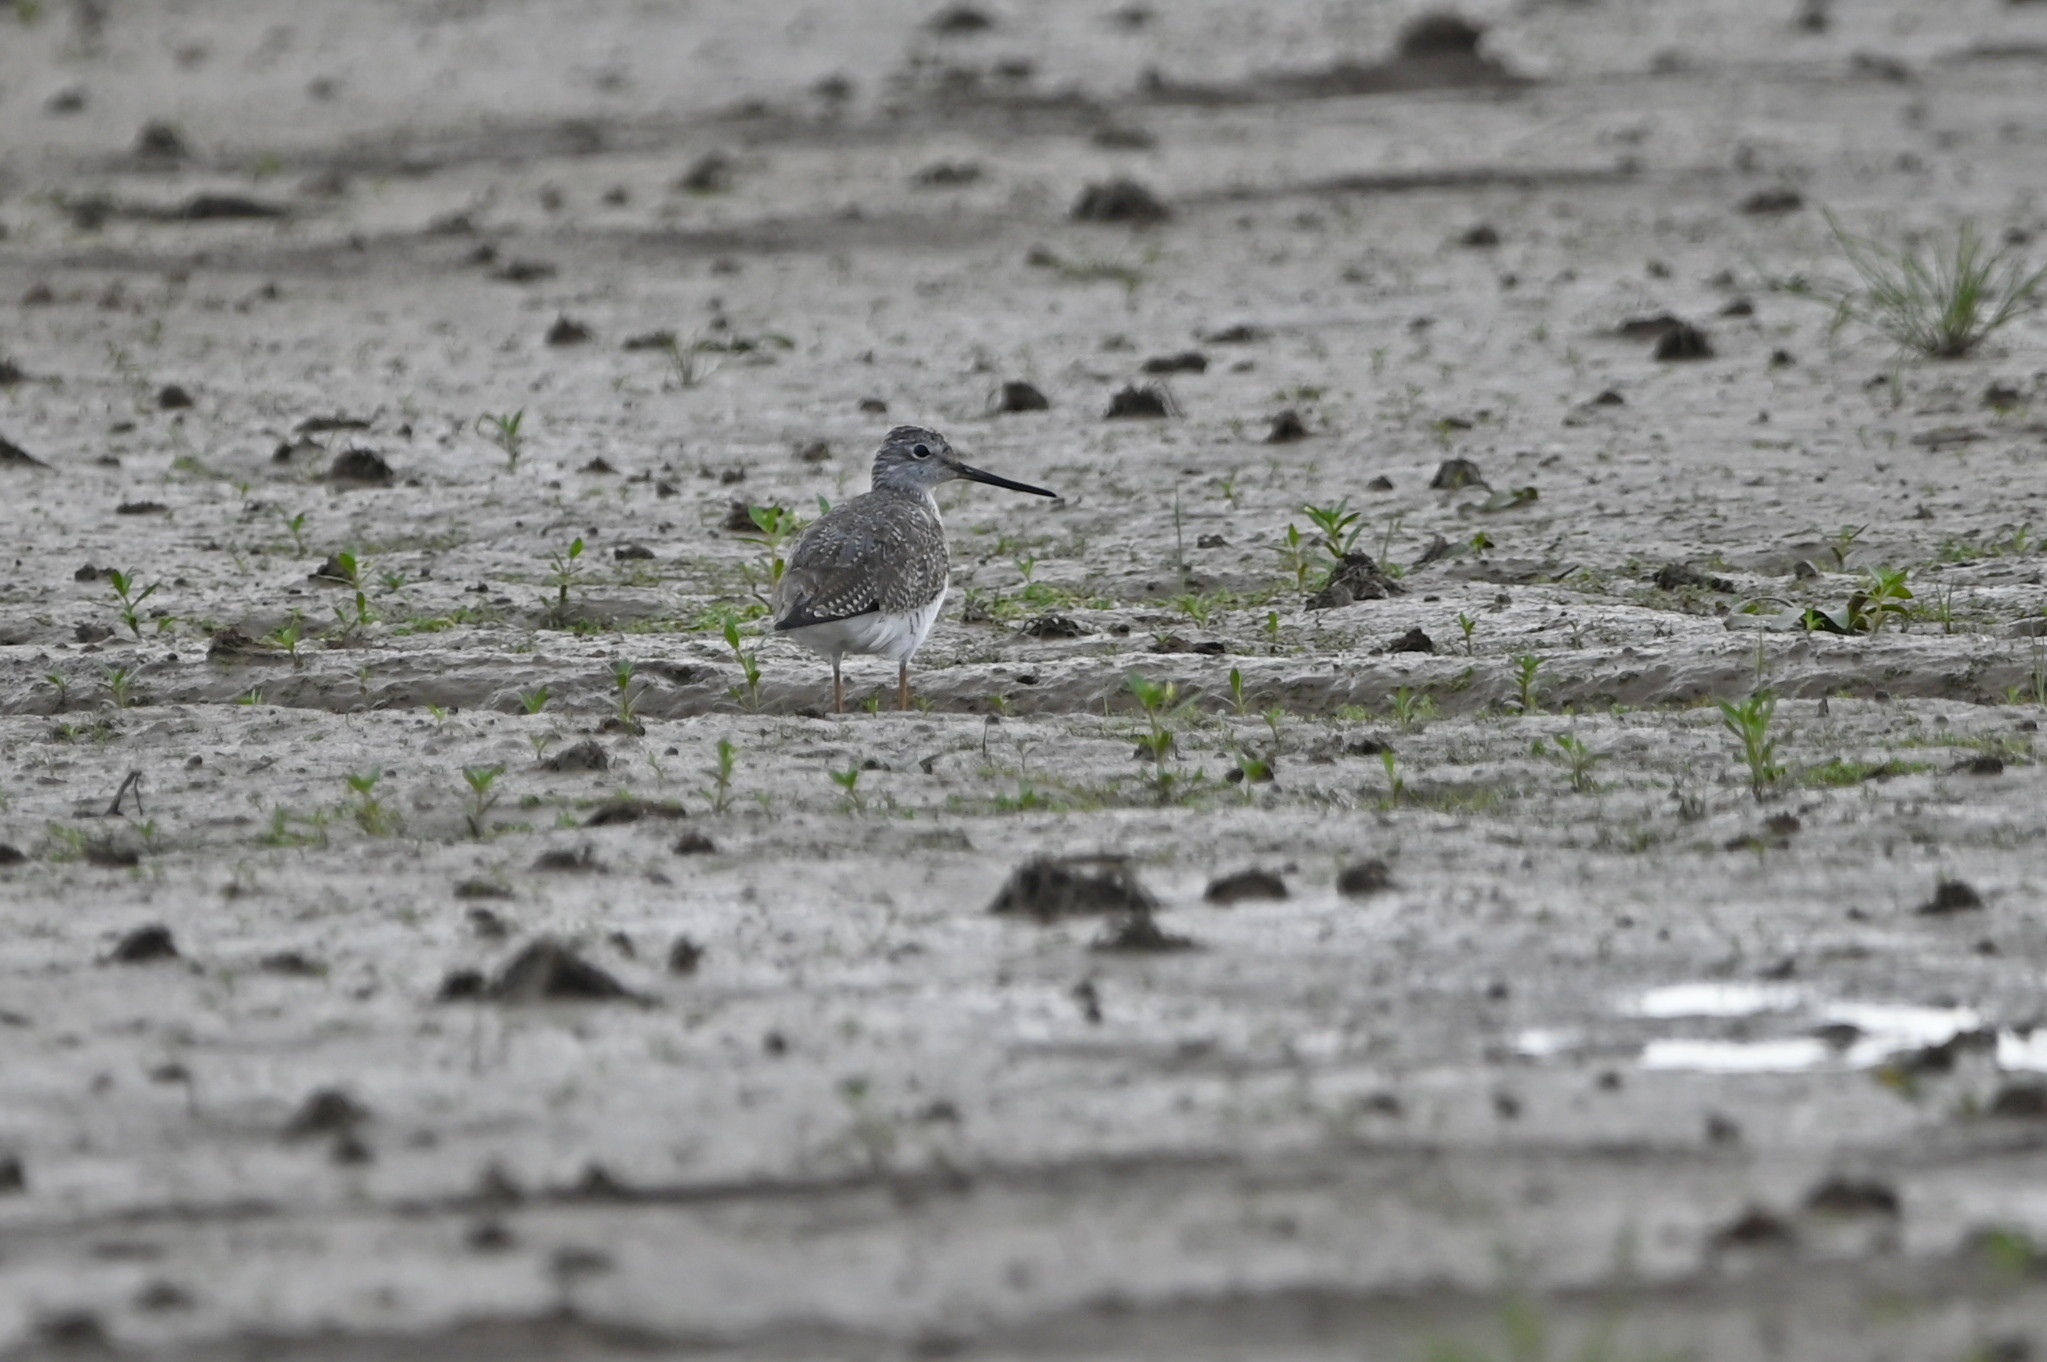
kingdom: Animalia
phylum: Chordata
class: Aves
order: Charadriiformes
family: Scolopacidae
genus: Tringa
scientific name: Tringa melanoleuca
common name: Greater yellowlegs
